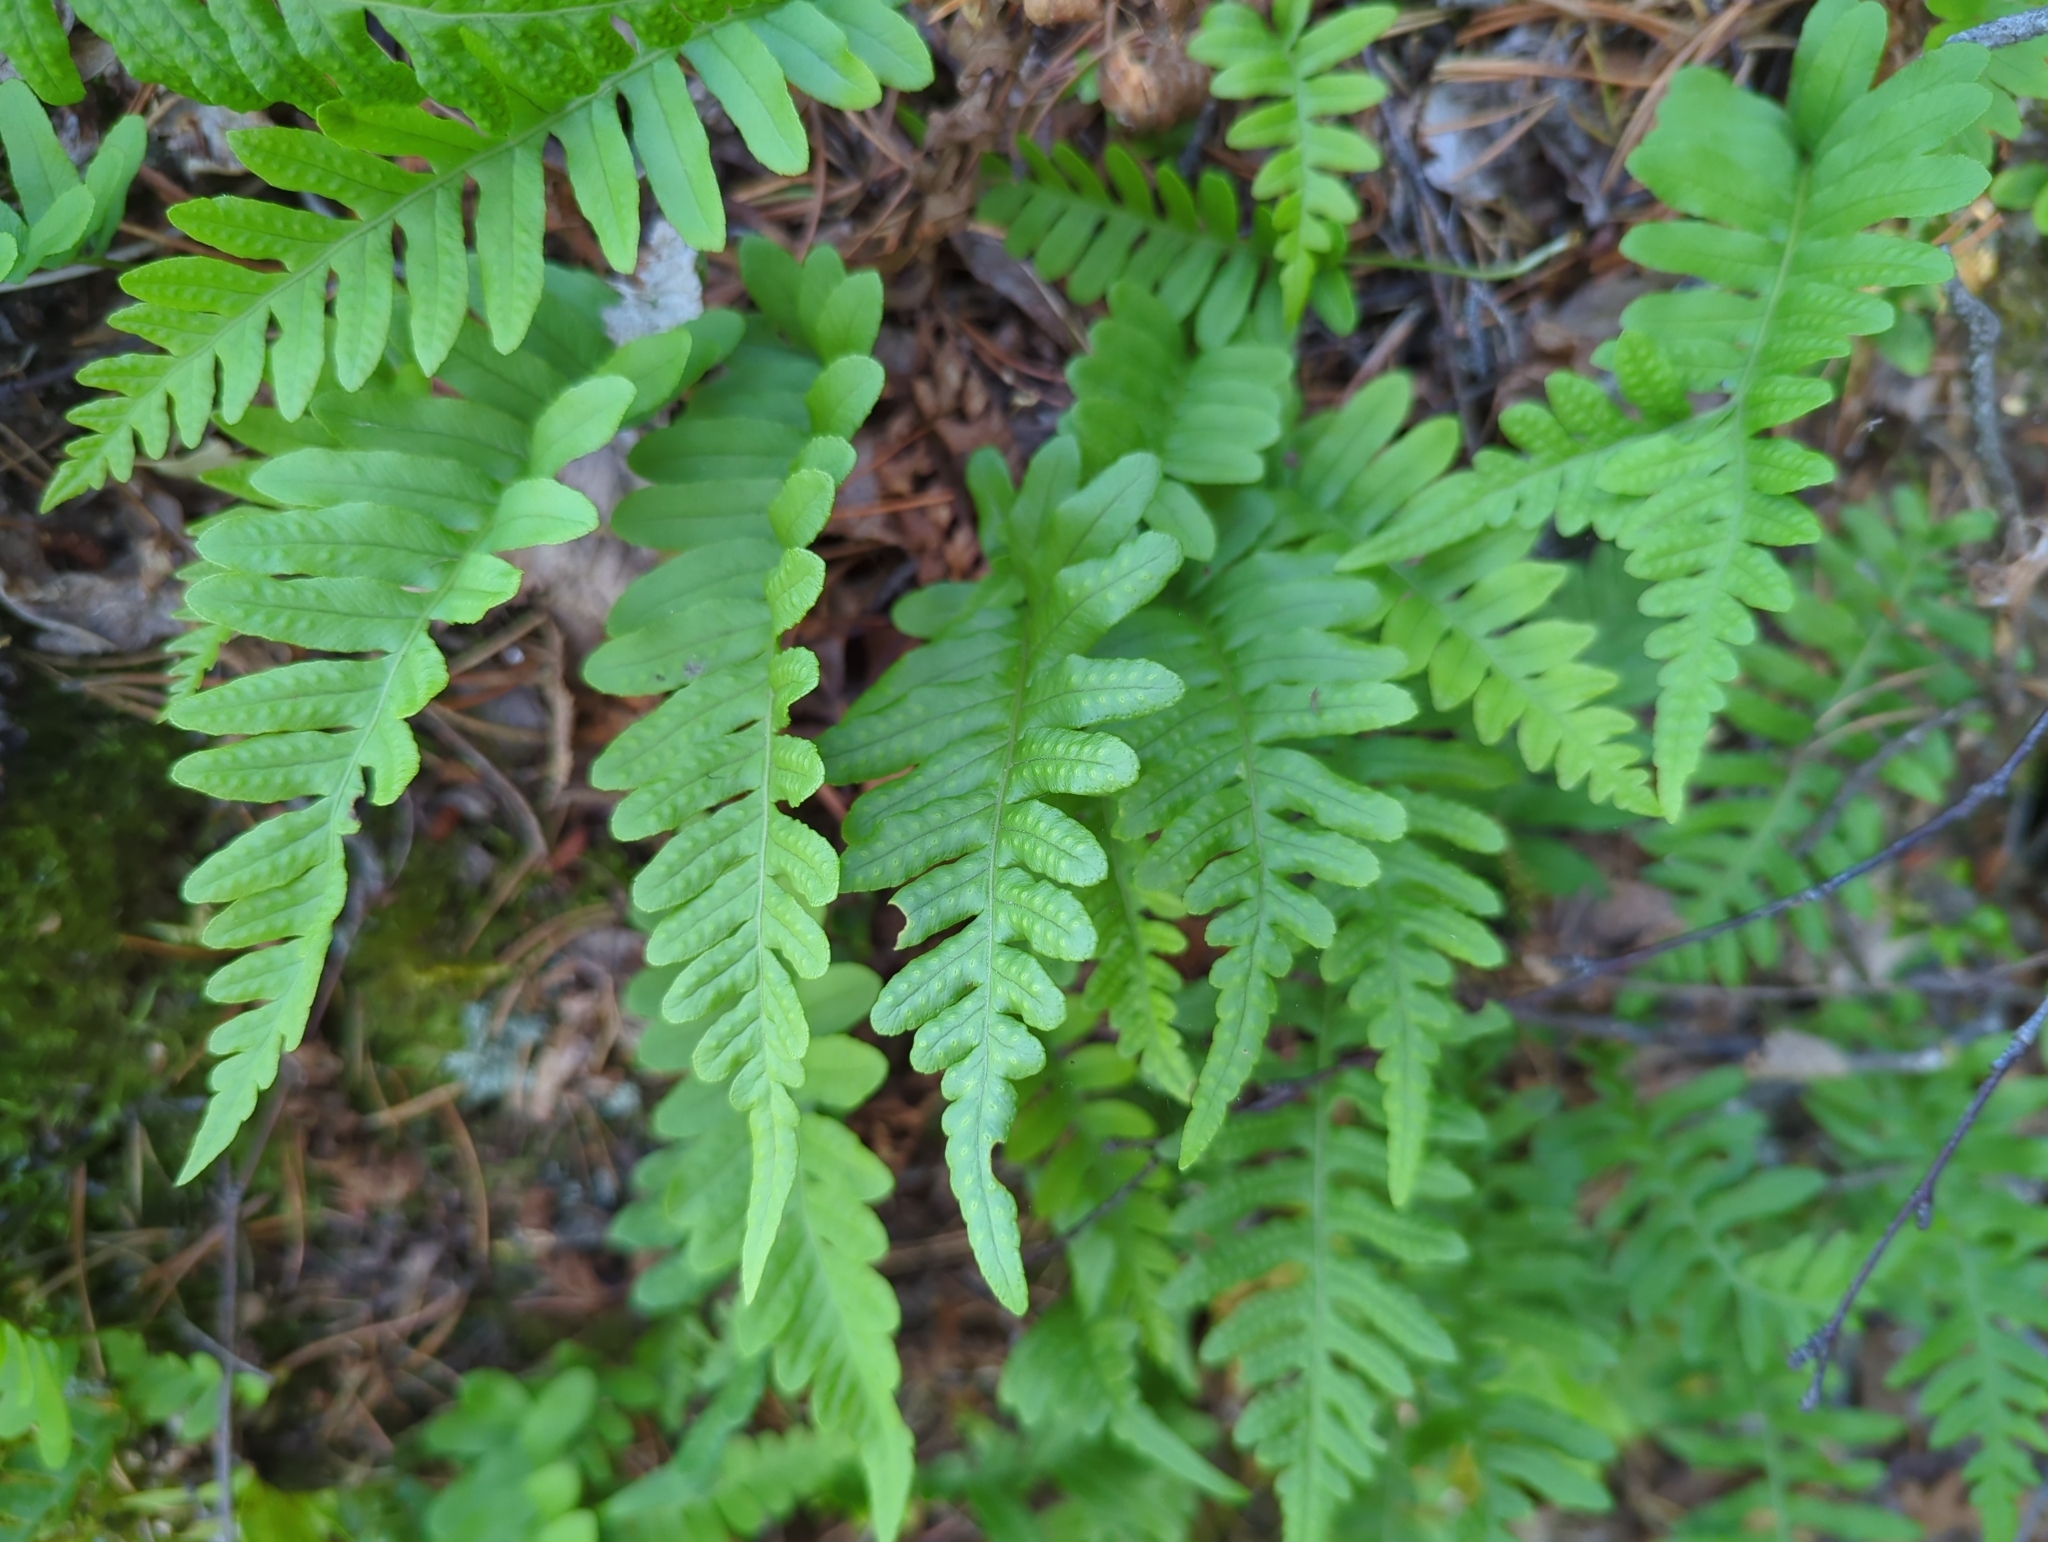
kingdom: Plantae
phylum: Tracheophyta
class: Polypodiopsida
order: Polypodiales
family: Polypodiaceae
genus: Polypodium
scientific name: Polypodium glycyrrhiza
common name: Licorice fern
